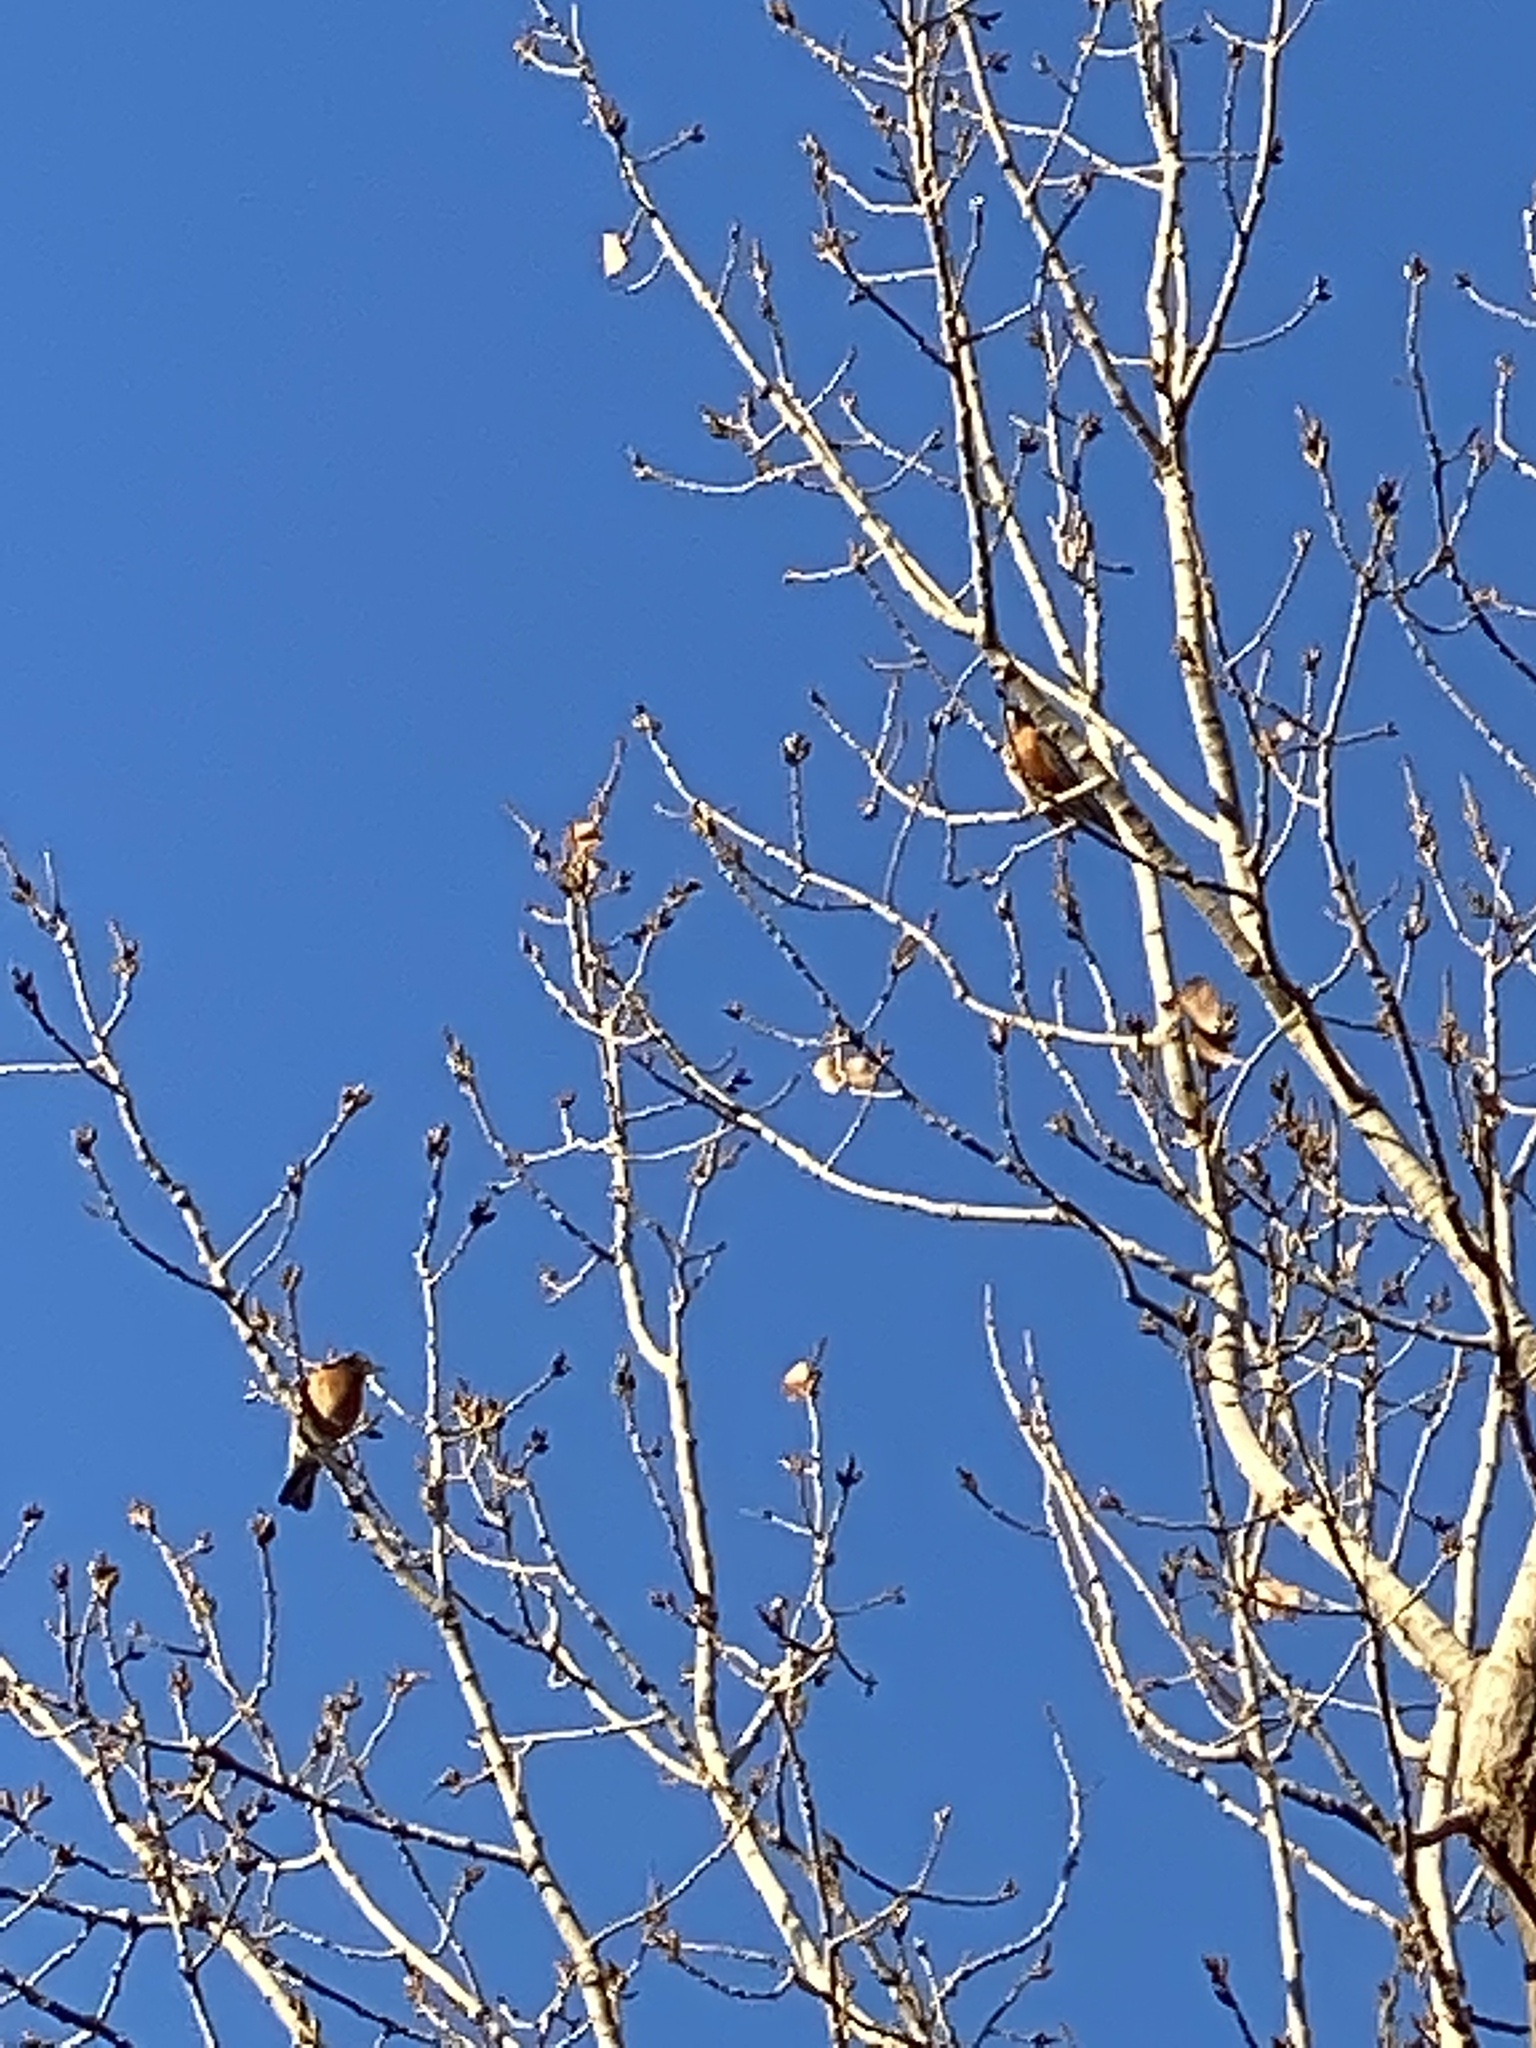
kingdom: Animalia
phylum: Chordata
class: Aves
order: Passeriformes
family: Turdidae
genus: Turdus
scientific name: Turdus migratorius
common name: American robin
